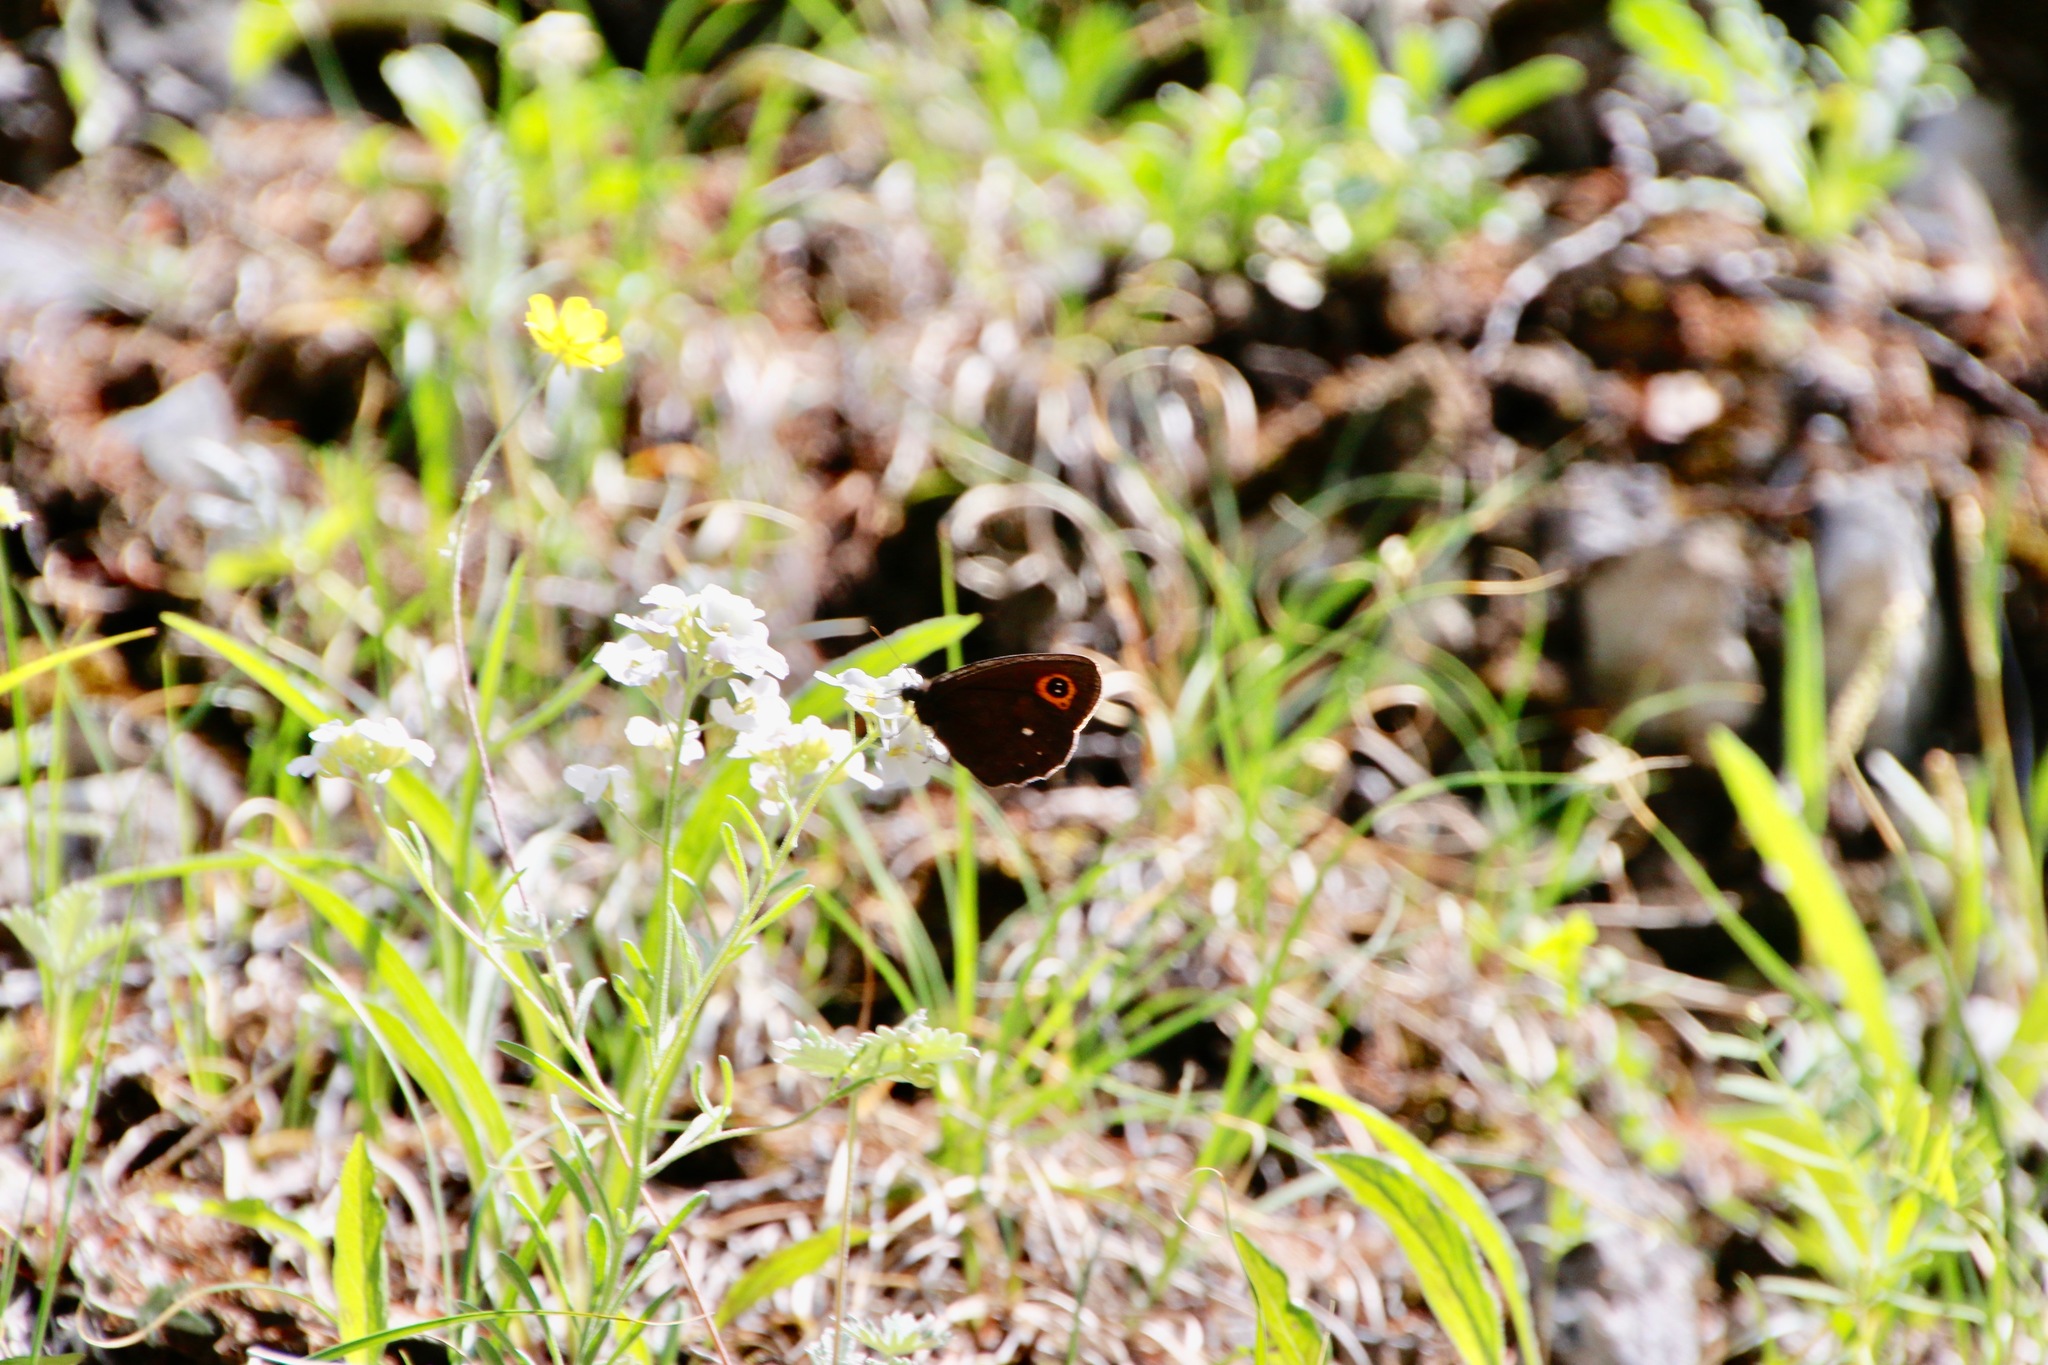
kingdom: Animalia
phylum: Arthropoda
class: Insecta
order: Lepidoptera
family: Nymphalidae
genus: Erebia
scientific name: Erebia edda
